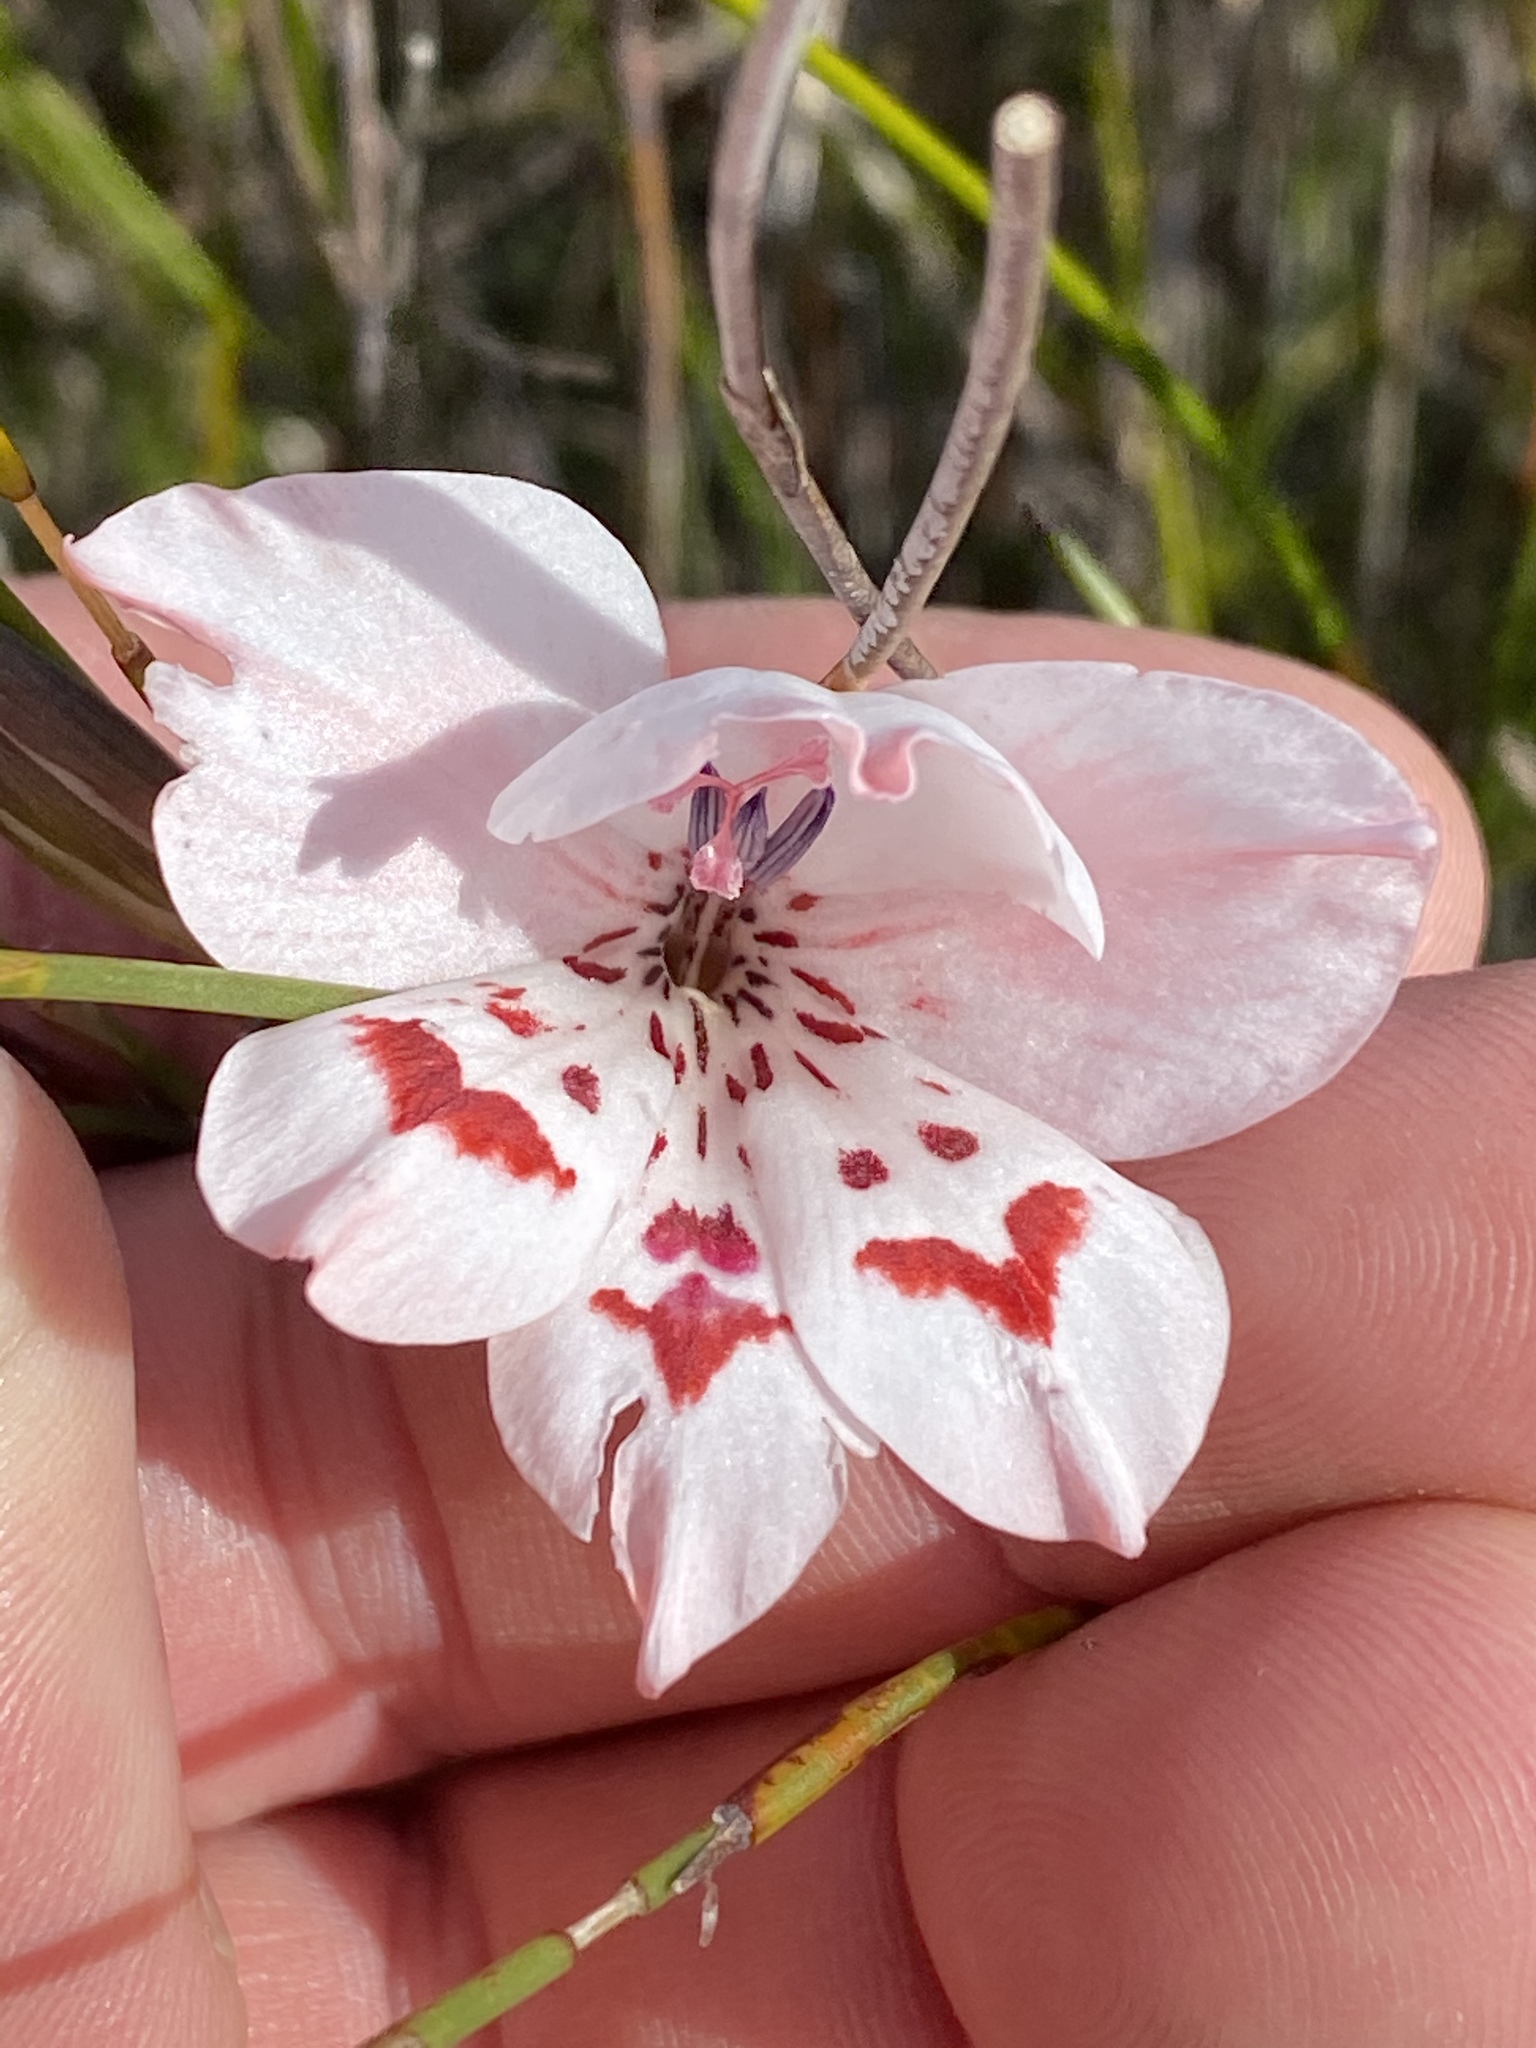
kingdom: Plantae
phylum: Tracheophyta
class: Liliopsida
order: Asparagales
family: Iridaceae
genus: Gladiolus
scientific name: Gladiolus debilis
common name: Painted-lady
